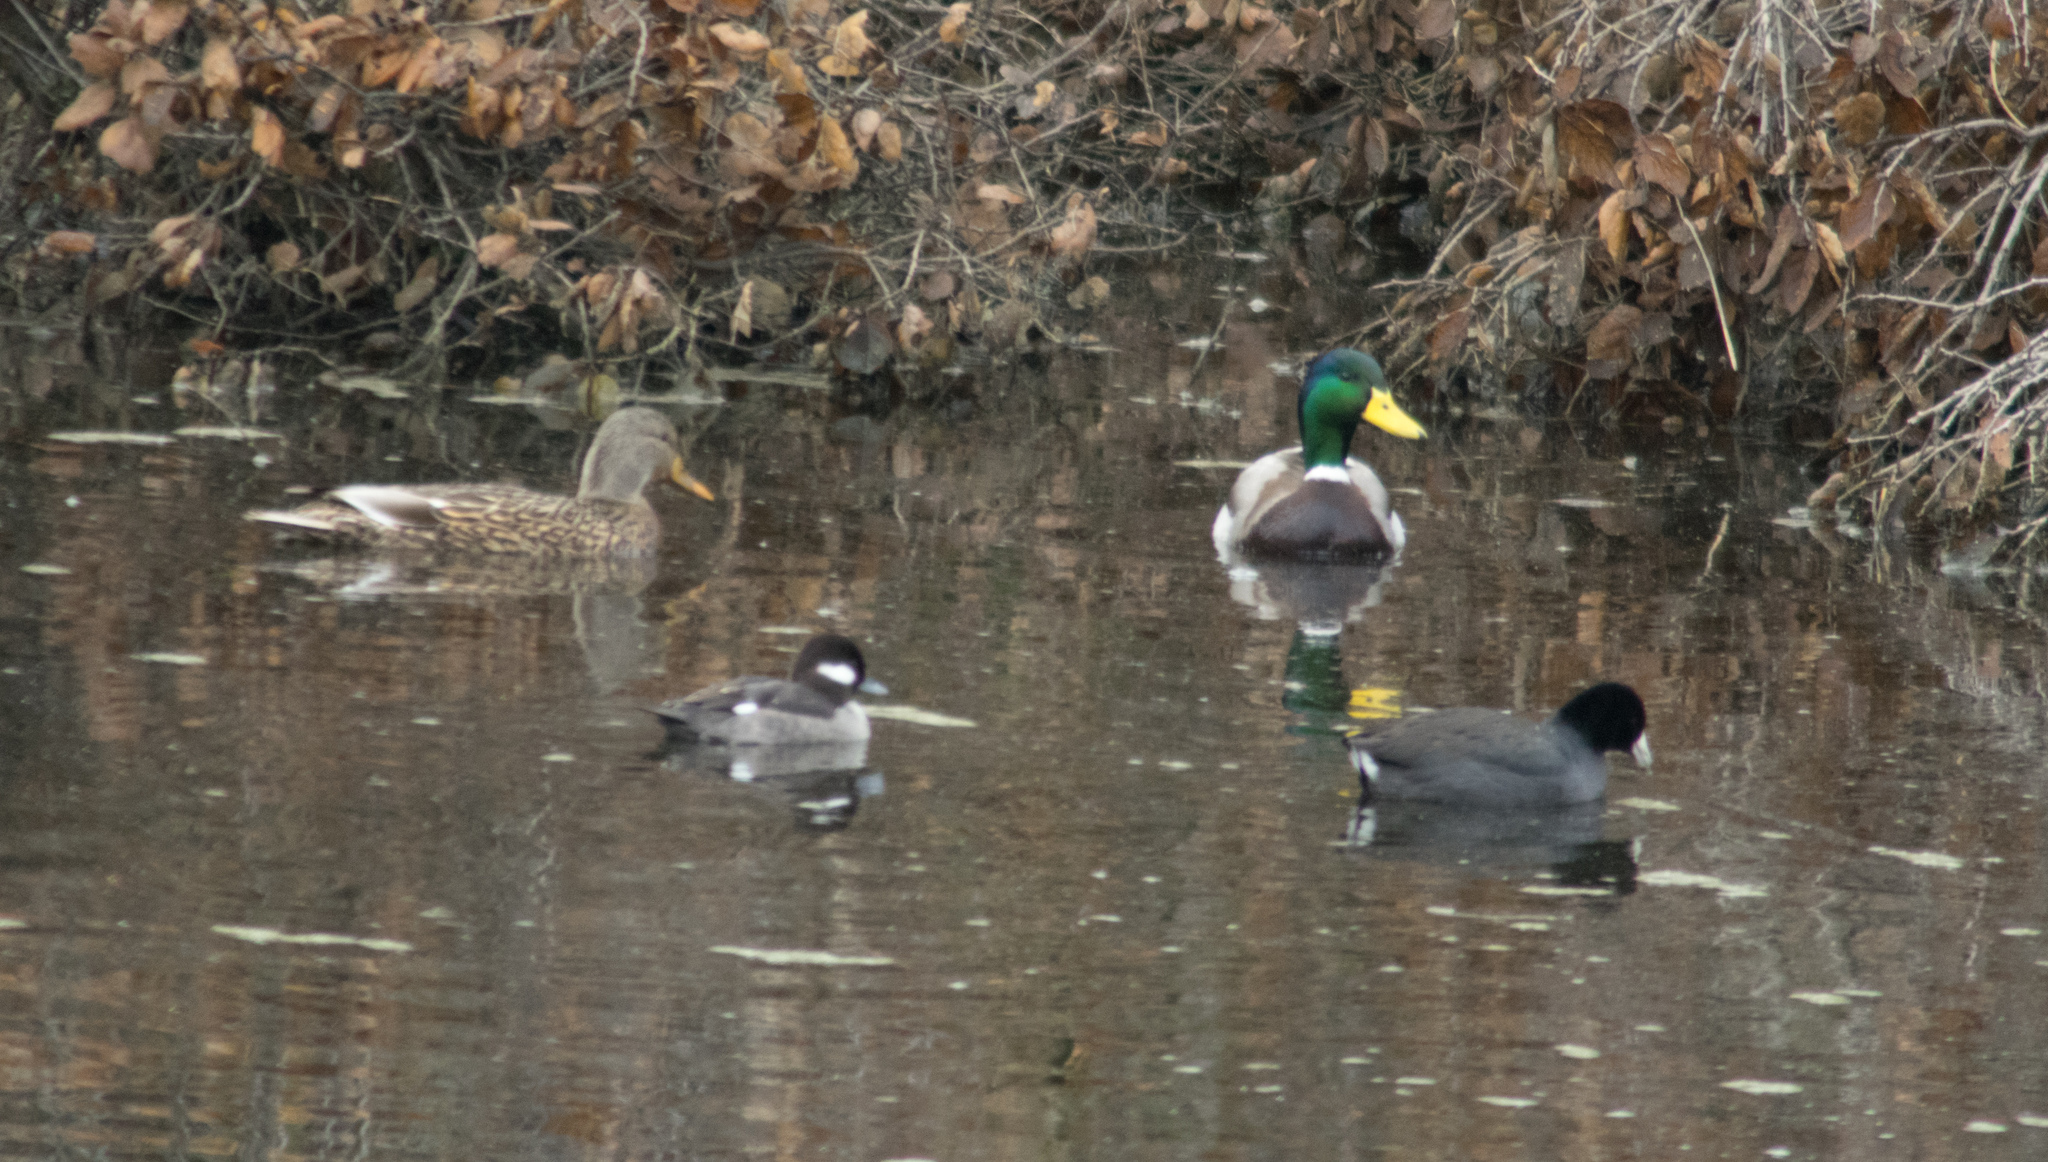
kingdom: Animalia
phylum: Chordata
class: Aves
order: Anseriformes
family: Anatidae
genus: Anas
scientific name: Anas platyrhynchos
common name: Mallard
